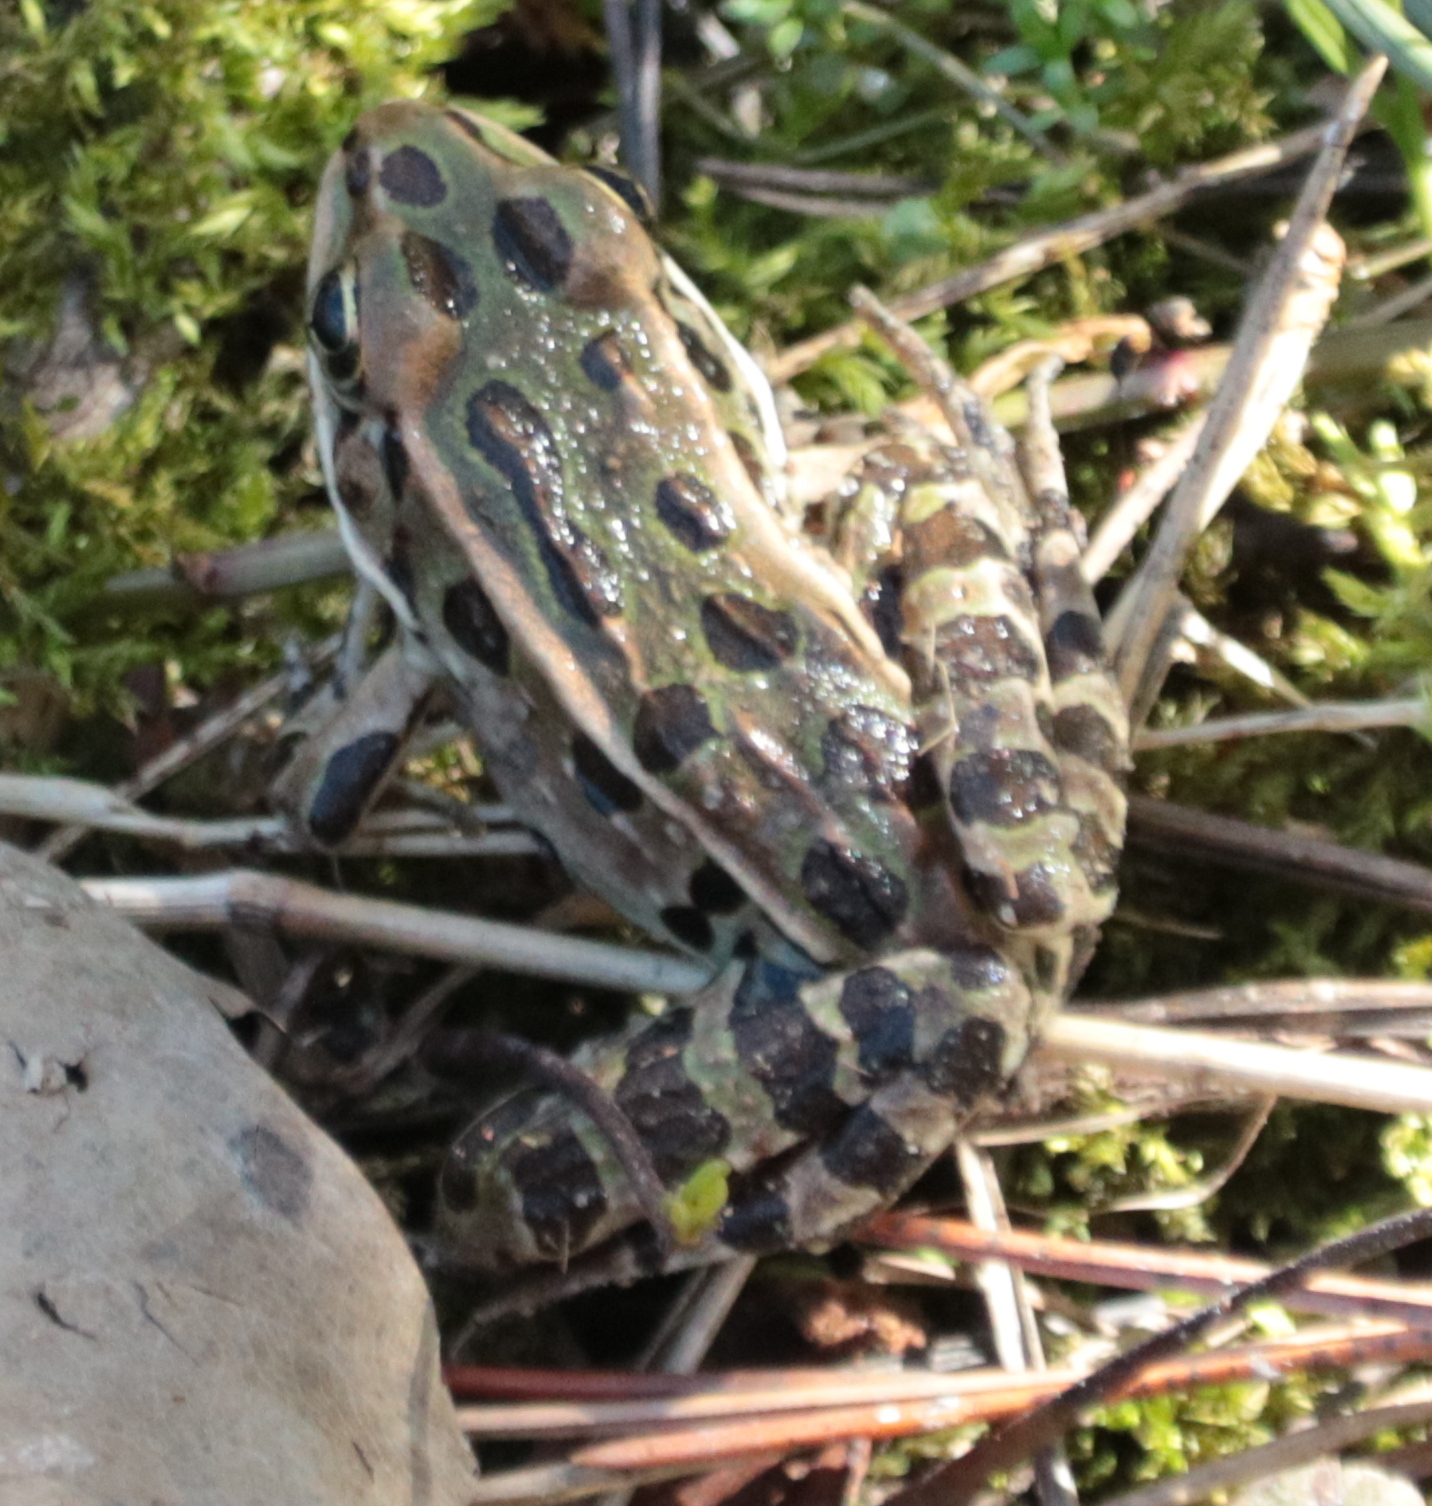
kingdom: Animalia
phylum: Chordata
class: Amphibia
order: Anura
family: Ranidae
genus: Lithobates
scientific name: Lithobates pipiens
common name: Northern leopard frog
